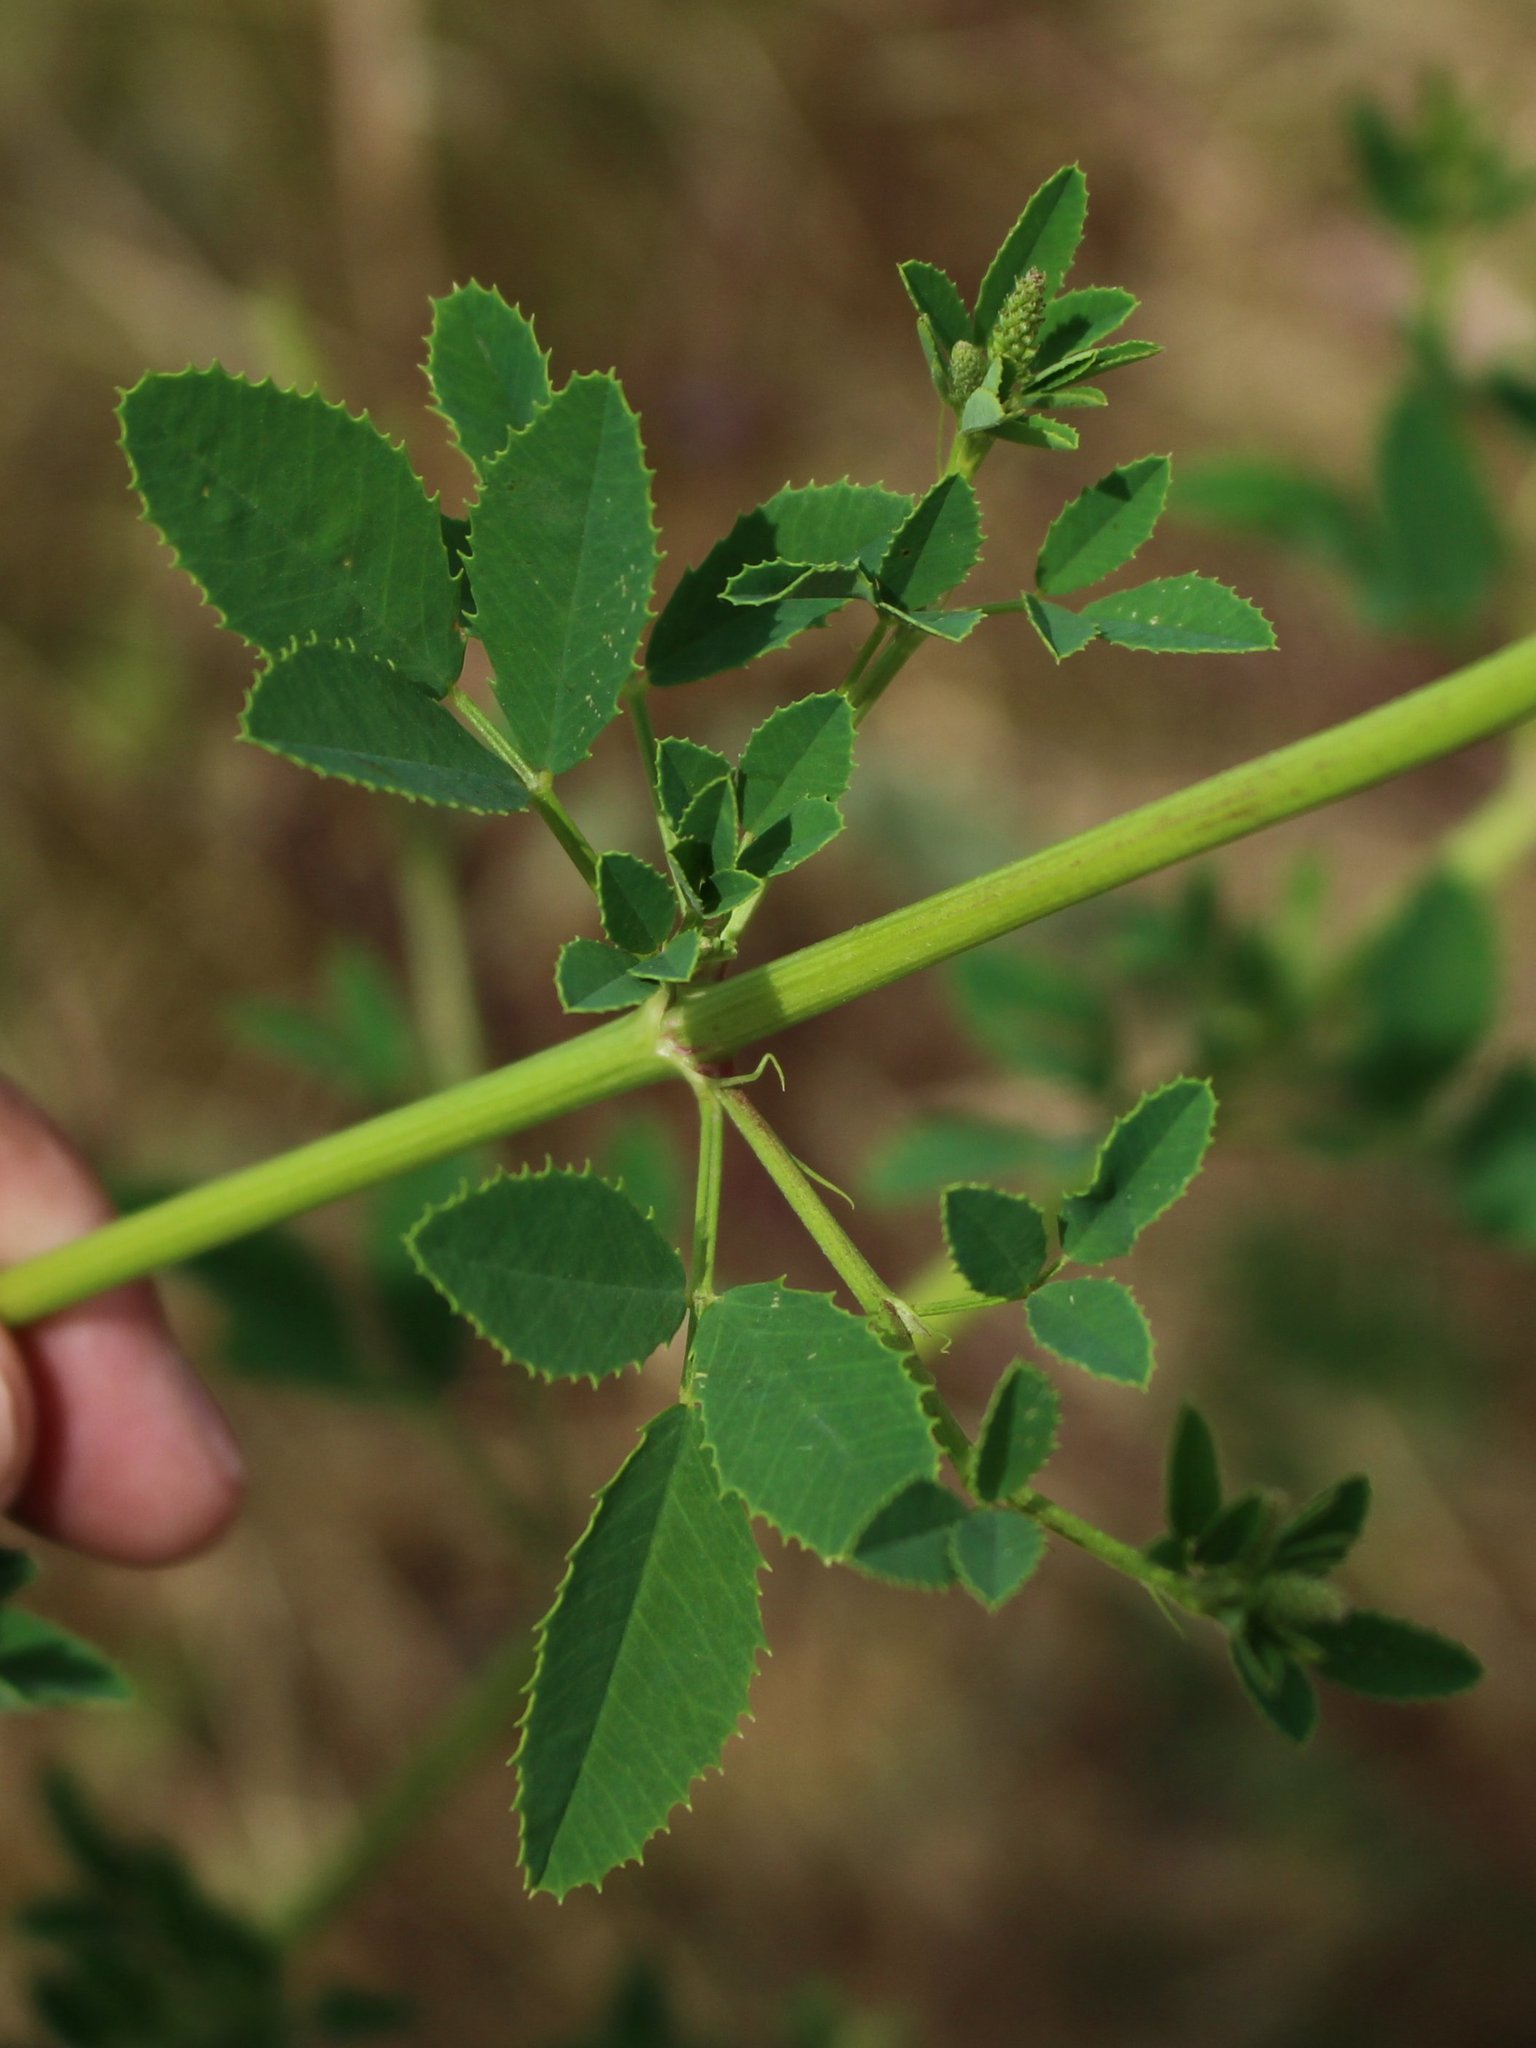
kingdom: Plantae
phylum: Tracheophyta
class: Magnoliopsida
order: Fabales
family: Fabaceae
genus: Melilotus
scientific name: Melilotus officinalis
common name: Sweetclover
